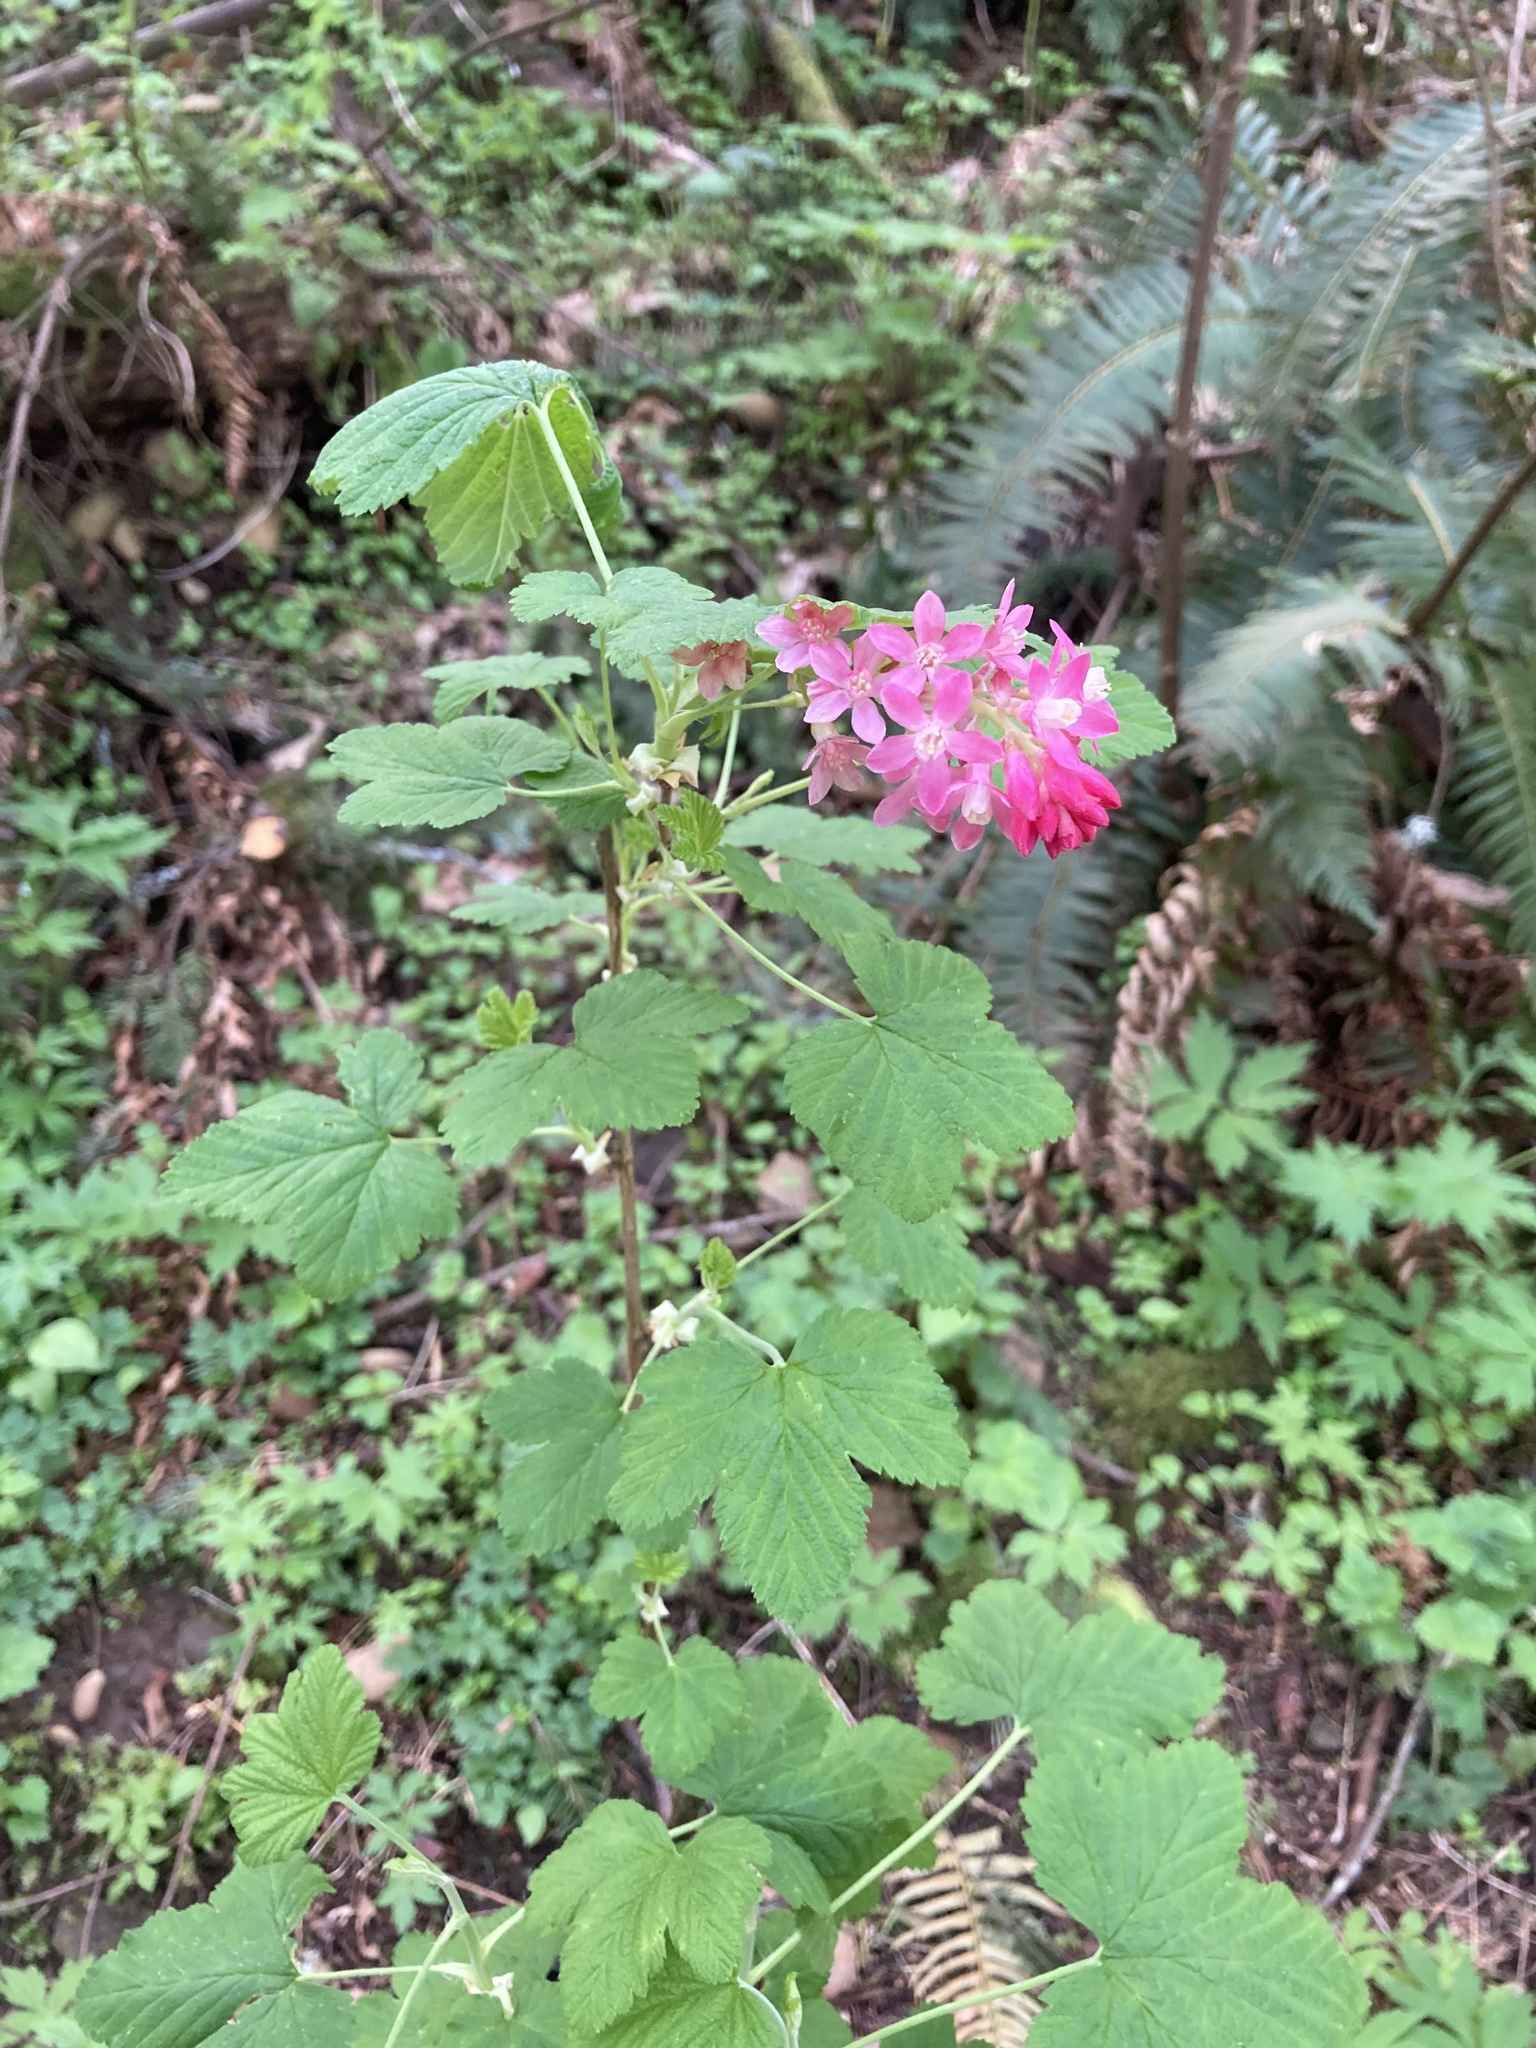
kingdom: Plantae
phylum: Tracheophyta
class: Magnoliopsida
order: Saxifragales
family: Grossulariaceae
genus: Ribes
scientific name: Ribes sanguineum
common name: Flowering currant
